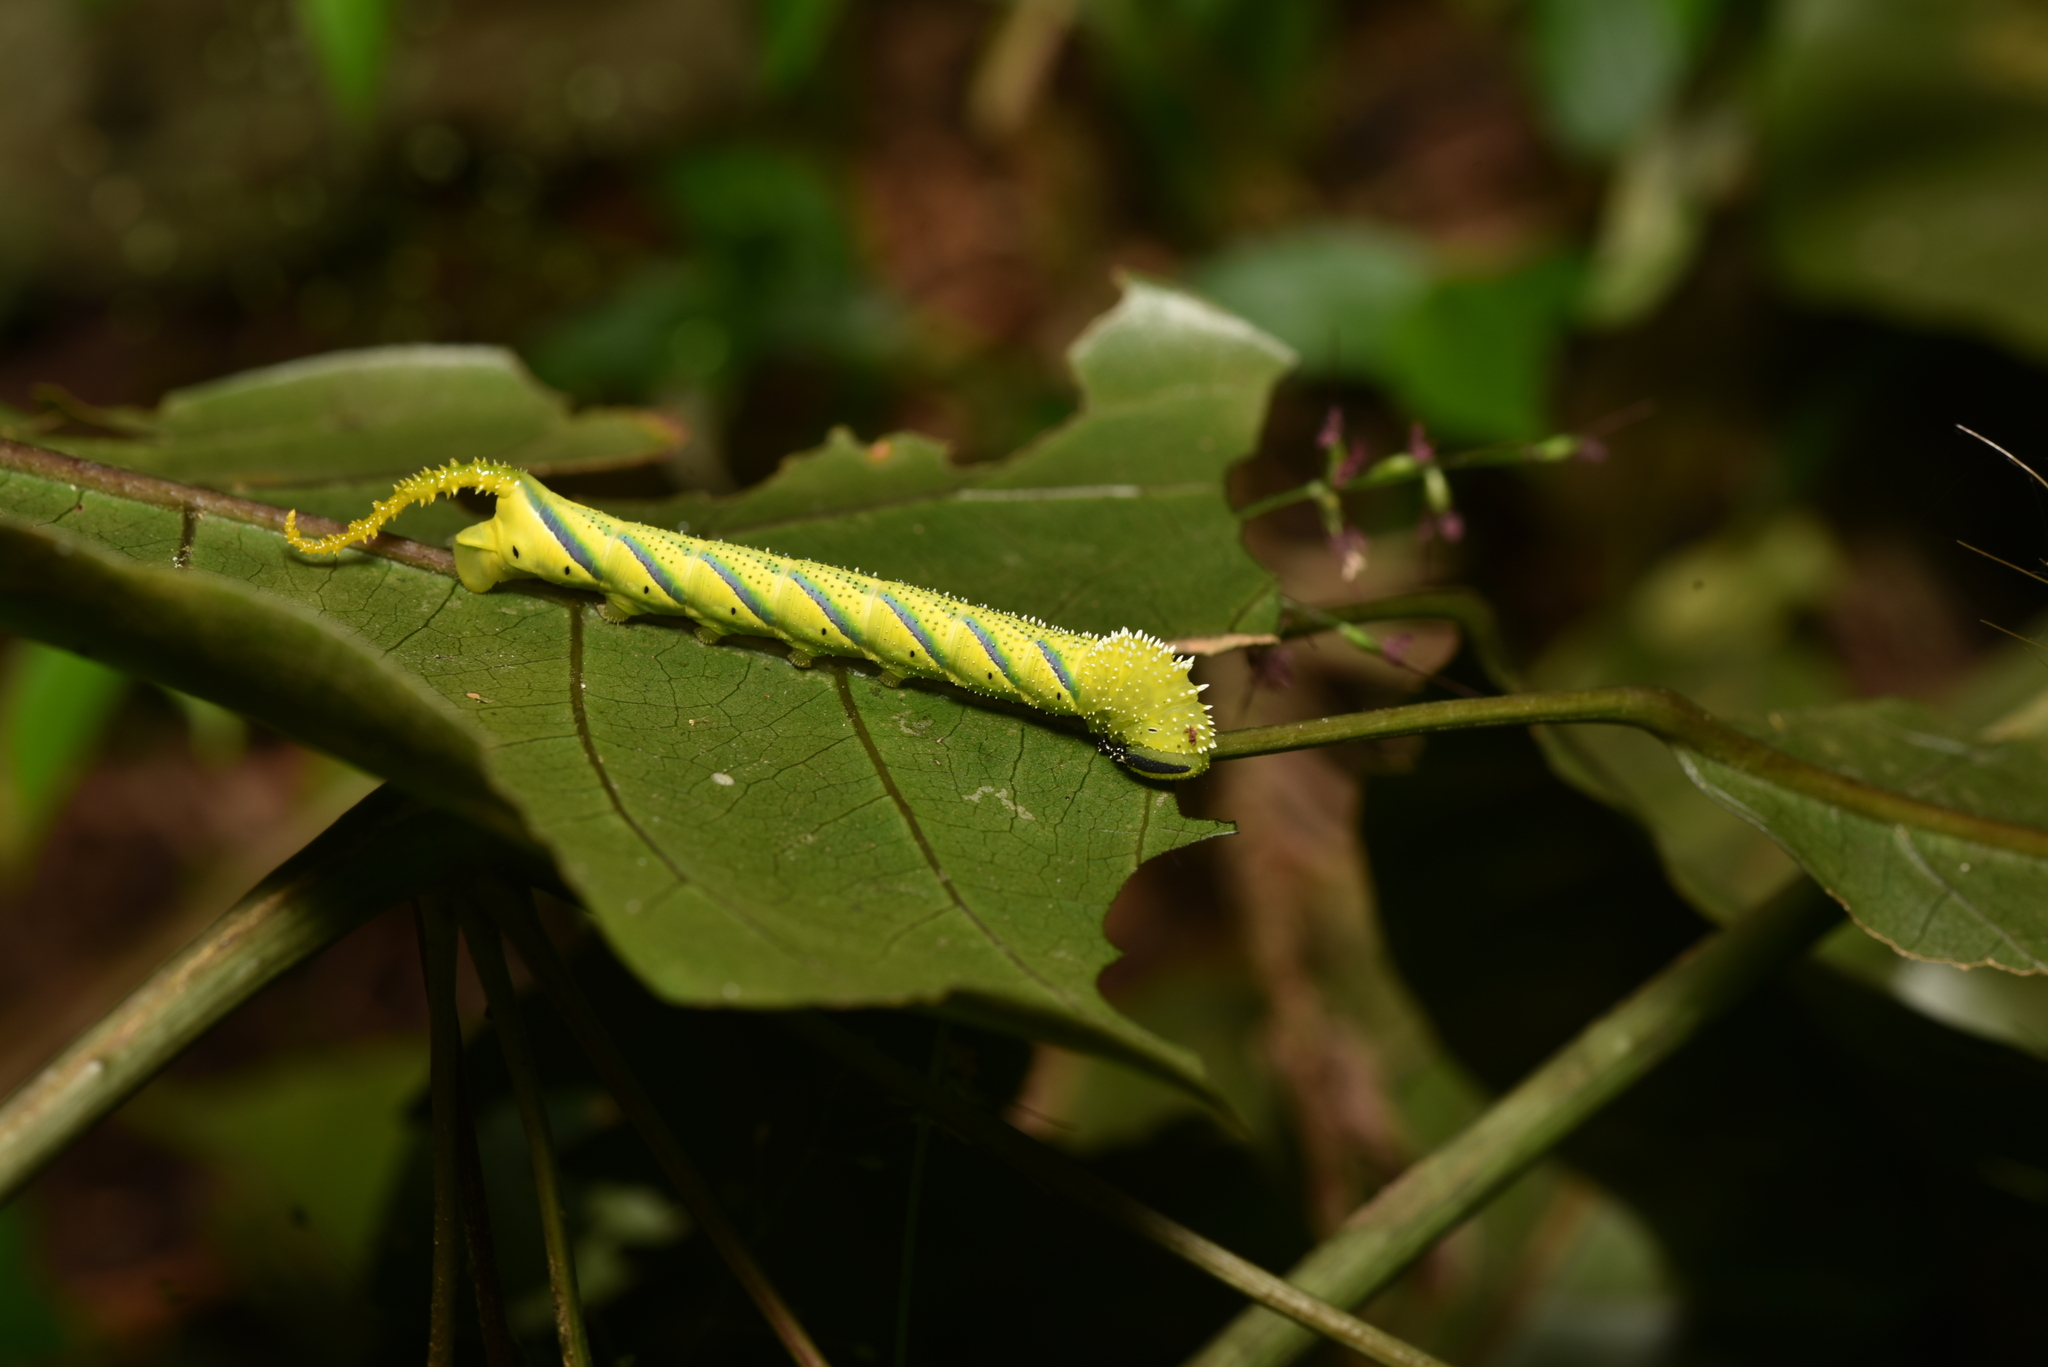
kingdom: Animalia
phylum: Arthropoda
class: Insecta
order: Lepidoptera
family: Sphingidae
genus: Acherontia
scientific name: Acherontia lachesis
